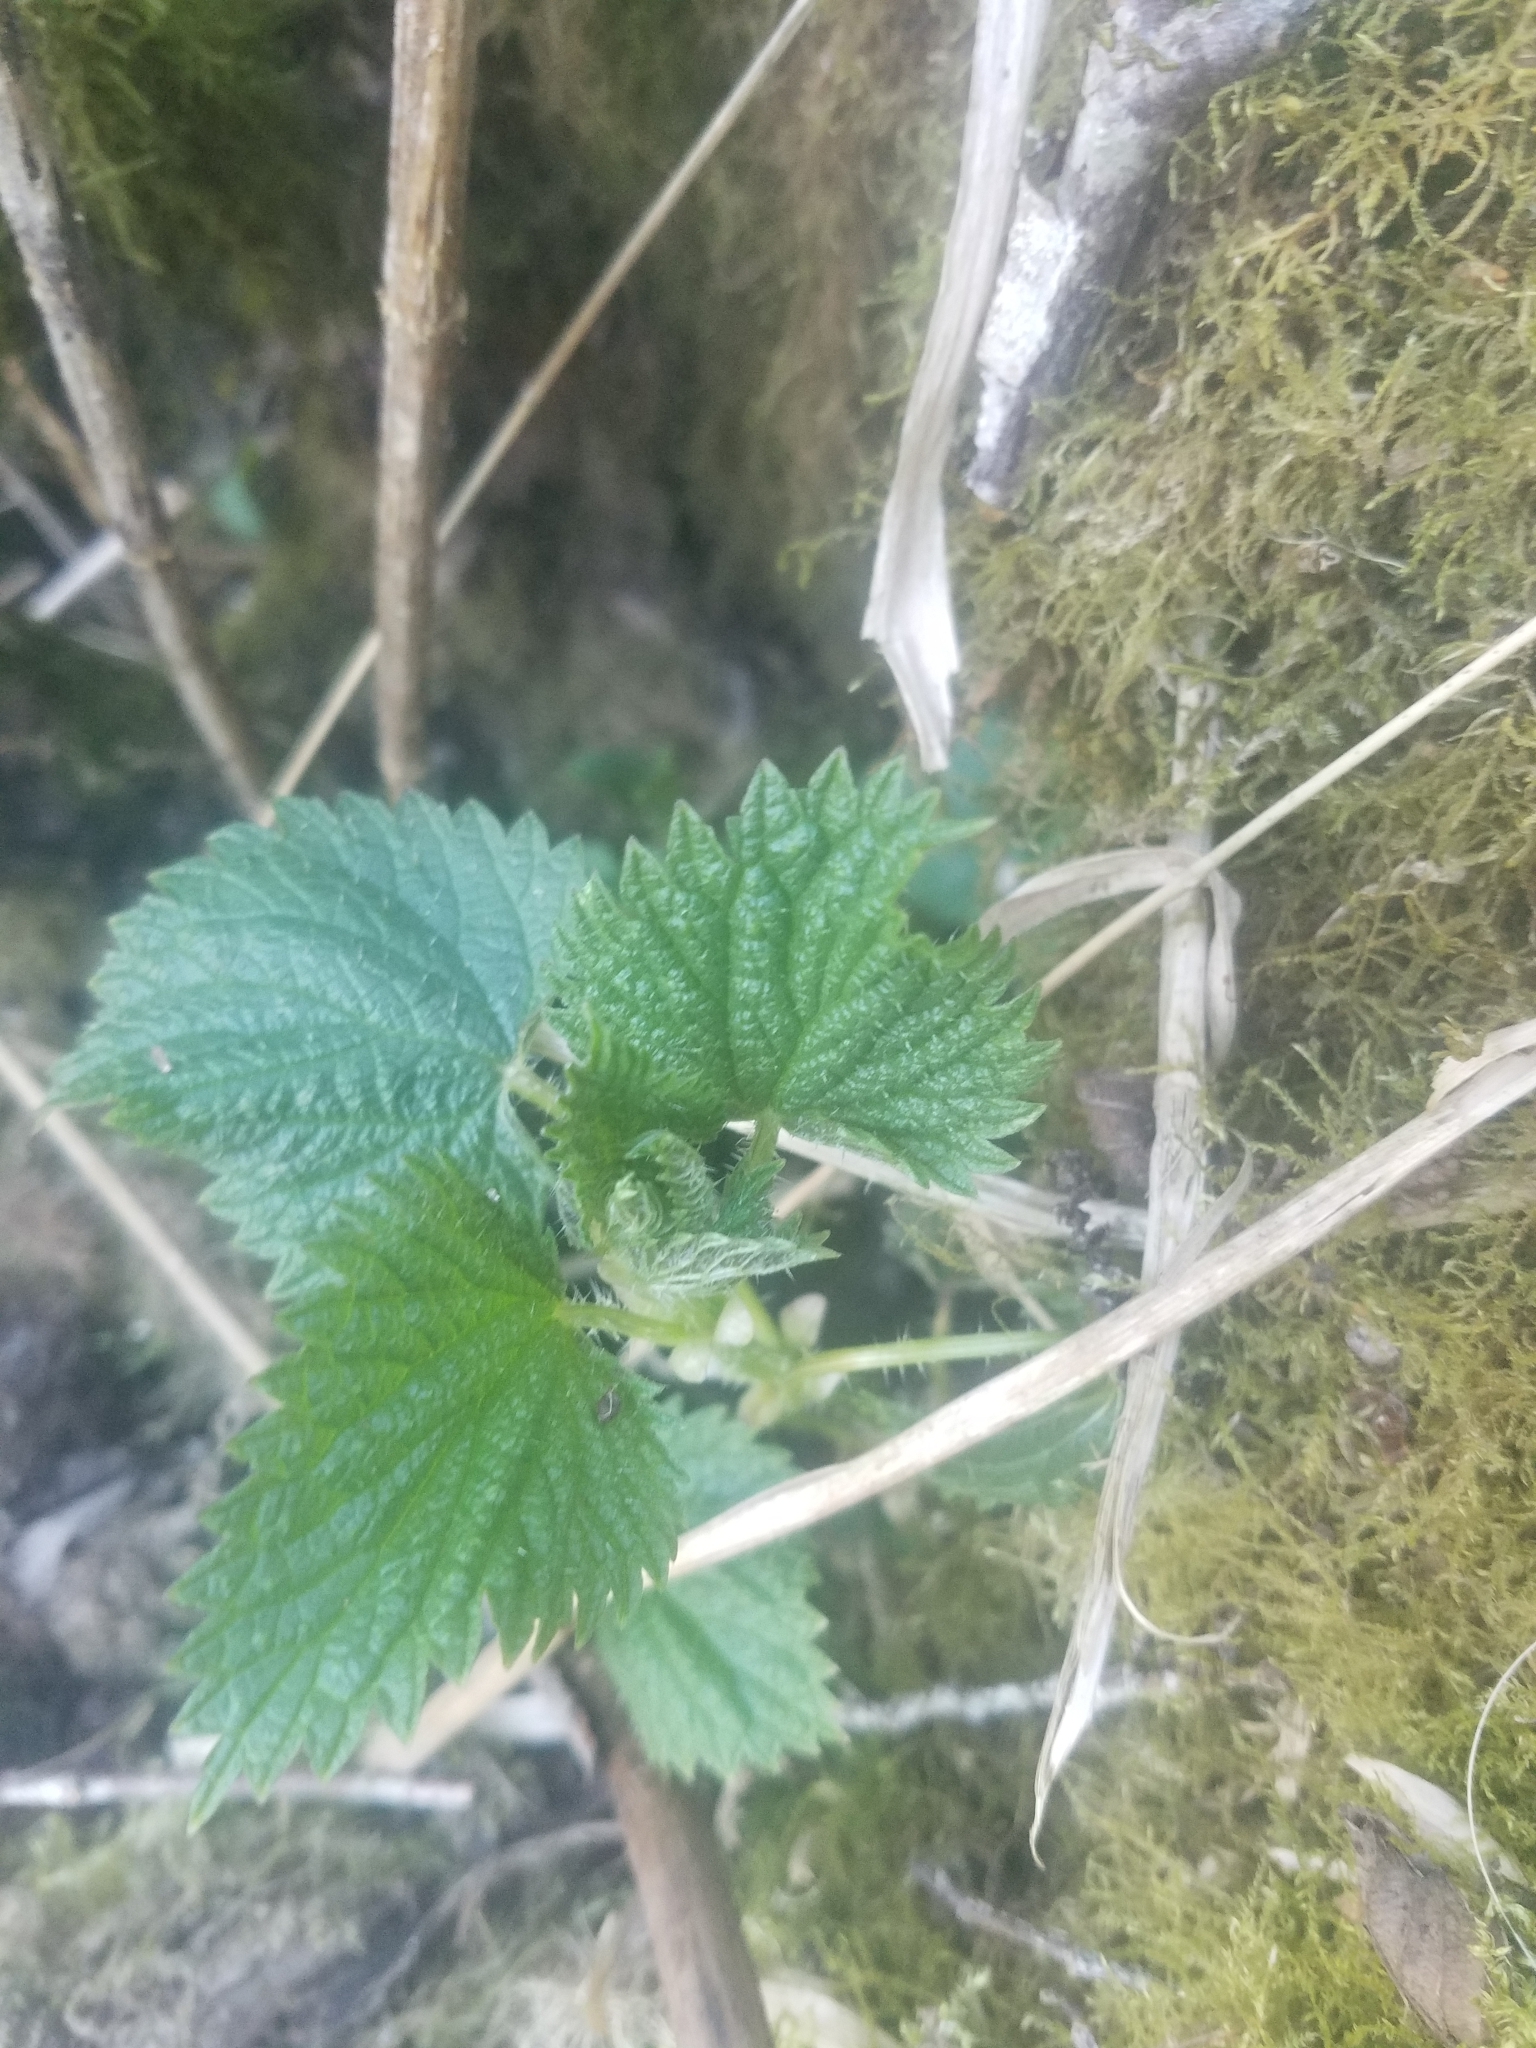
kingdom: Plantae
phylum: Tracheophyta
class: Magnoliopsida
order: Rosales
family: Urticaceae
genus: Urtica
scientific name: Urtica gracilis
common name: Slender stinging nettle
